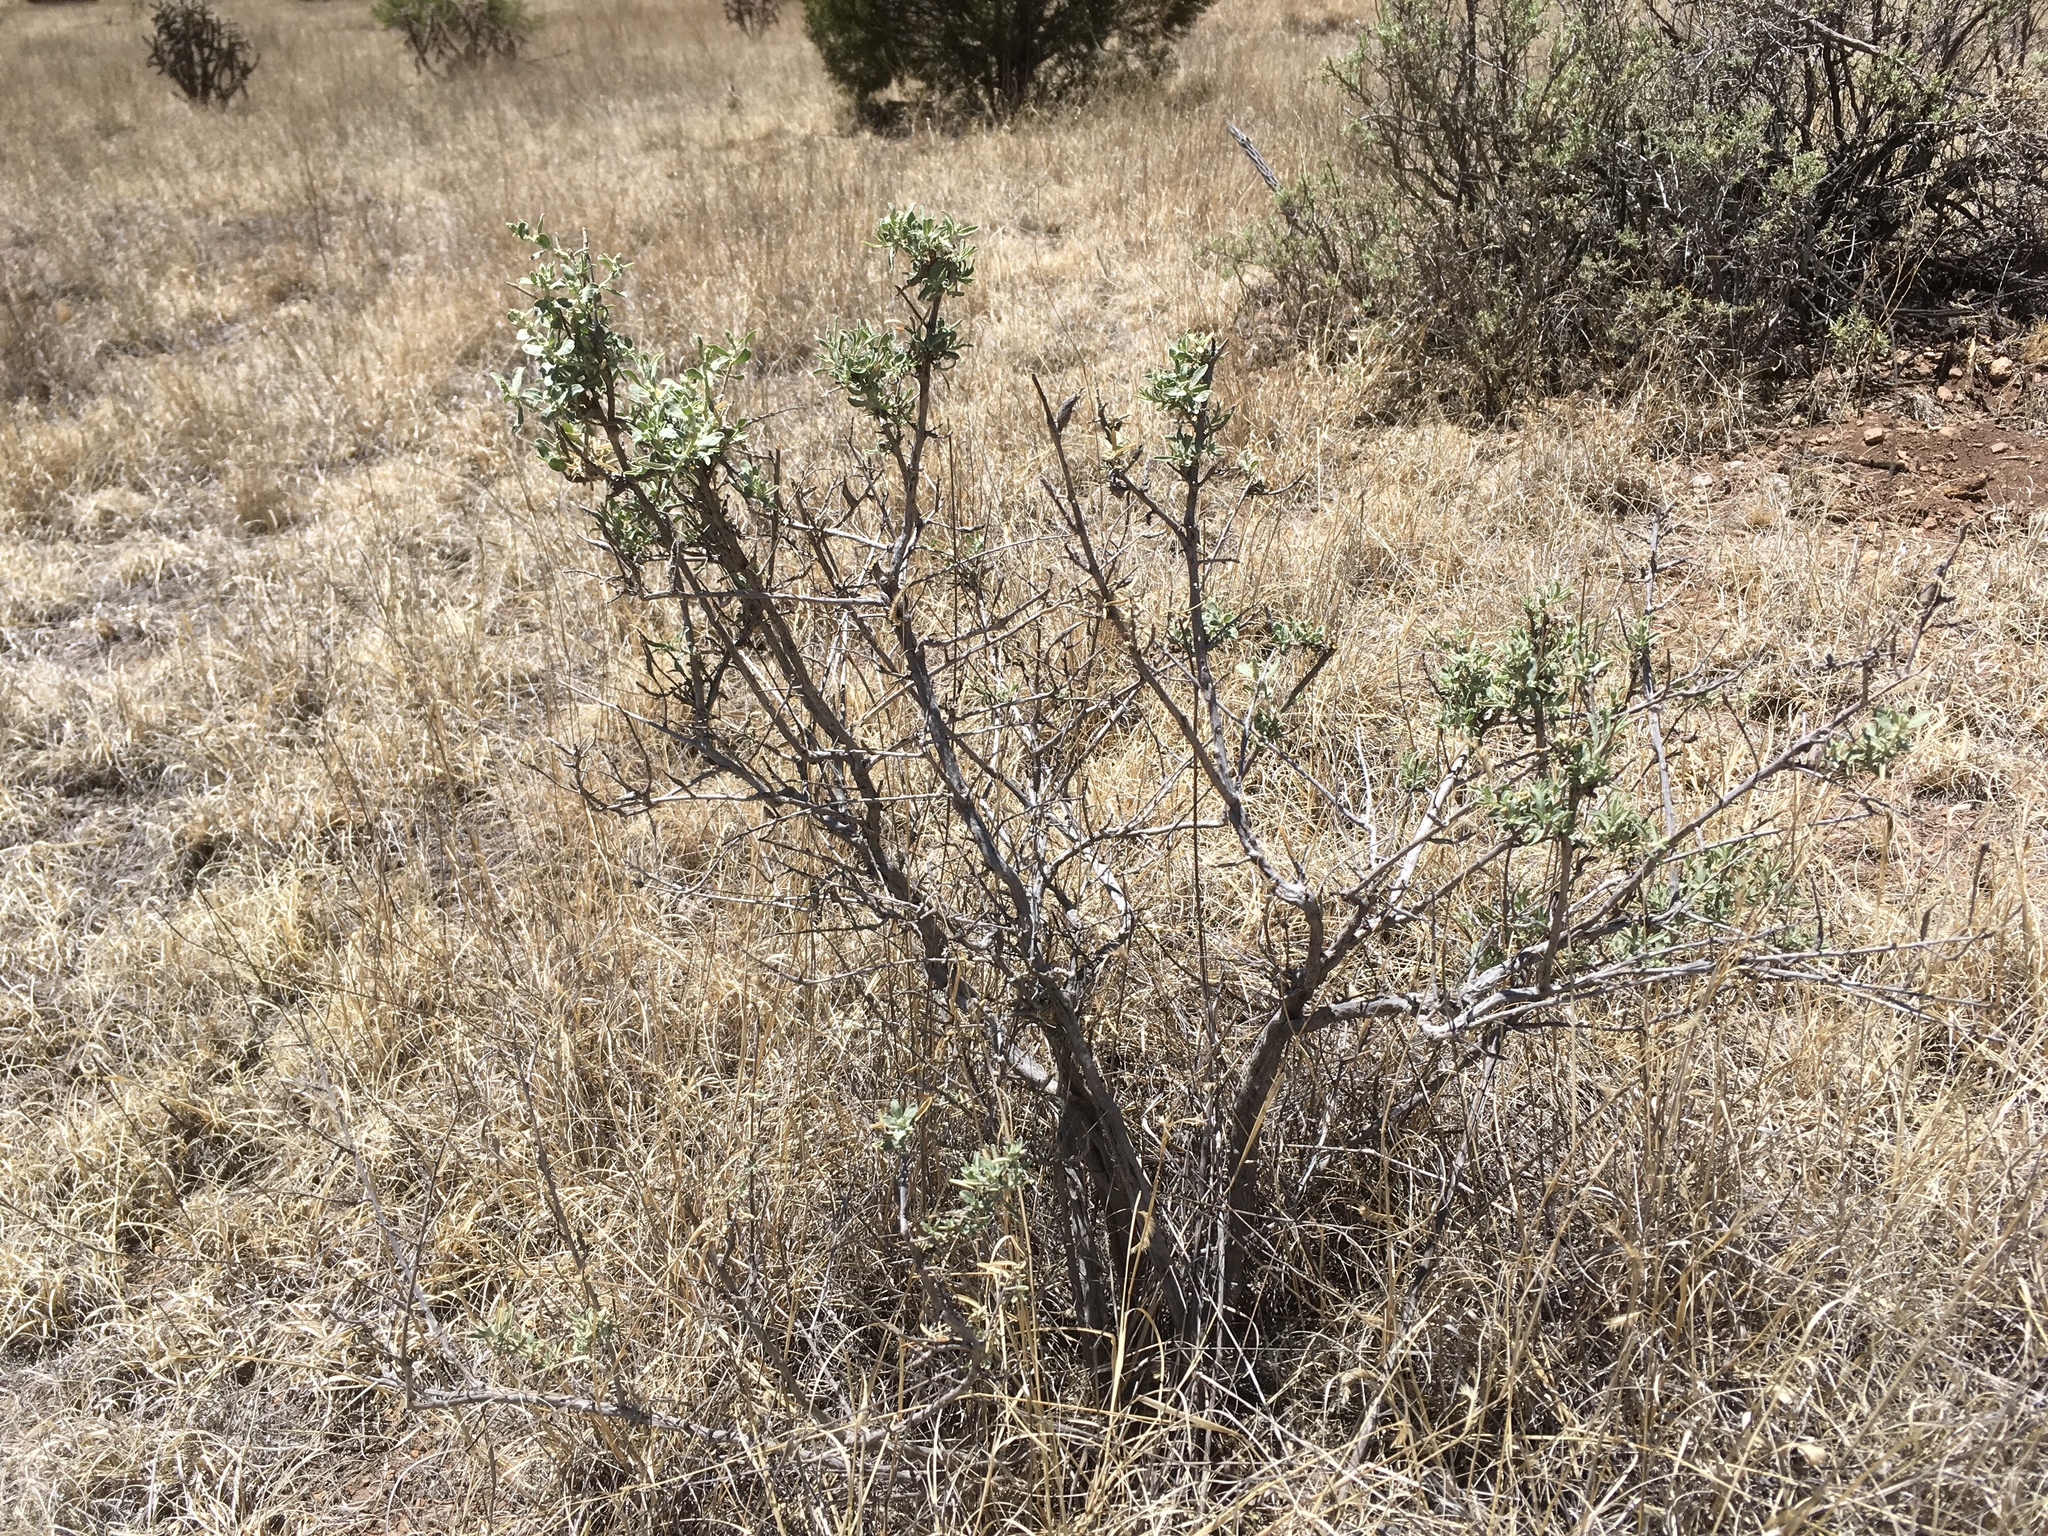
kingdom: Plantae
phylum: Tracheophyta
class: Magnoliopsida
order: Caryophyllales
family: Amaranthaceae
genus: Atriplex
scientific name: Atriplex canescens
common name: Four-wing saltbush
